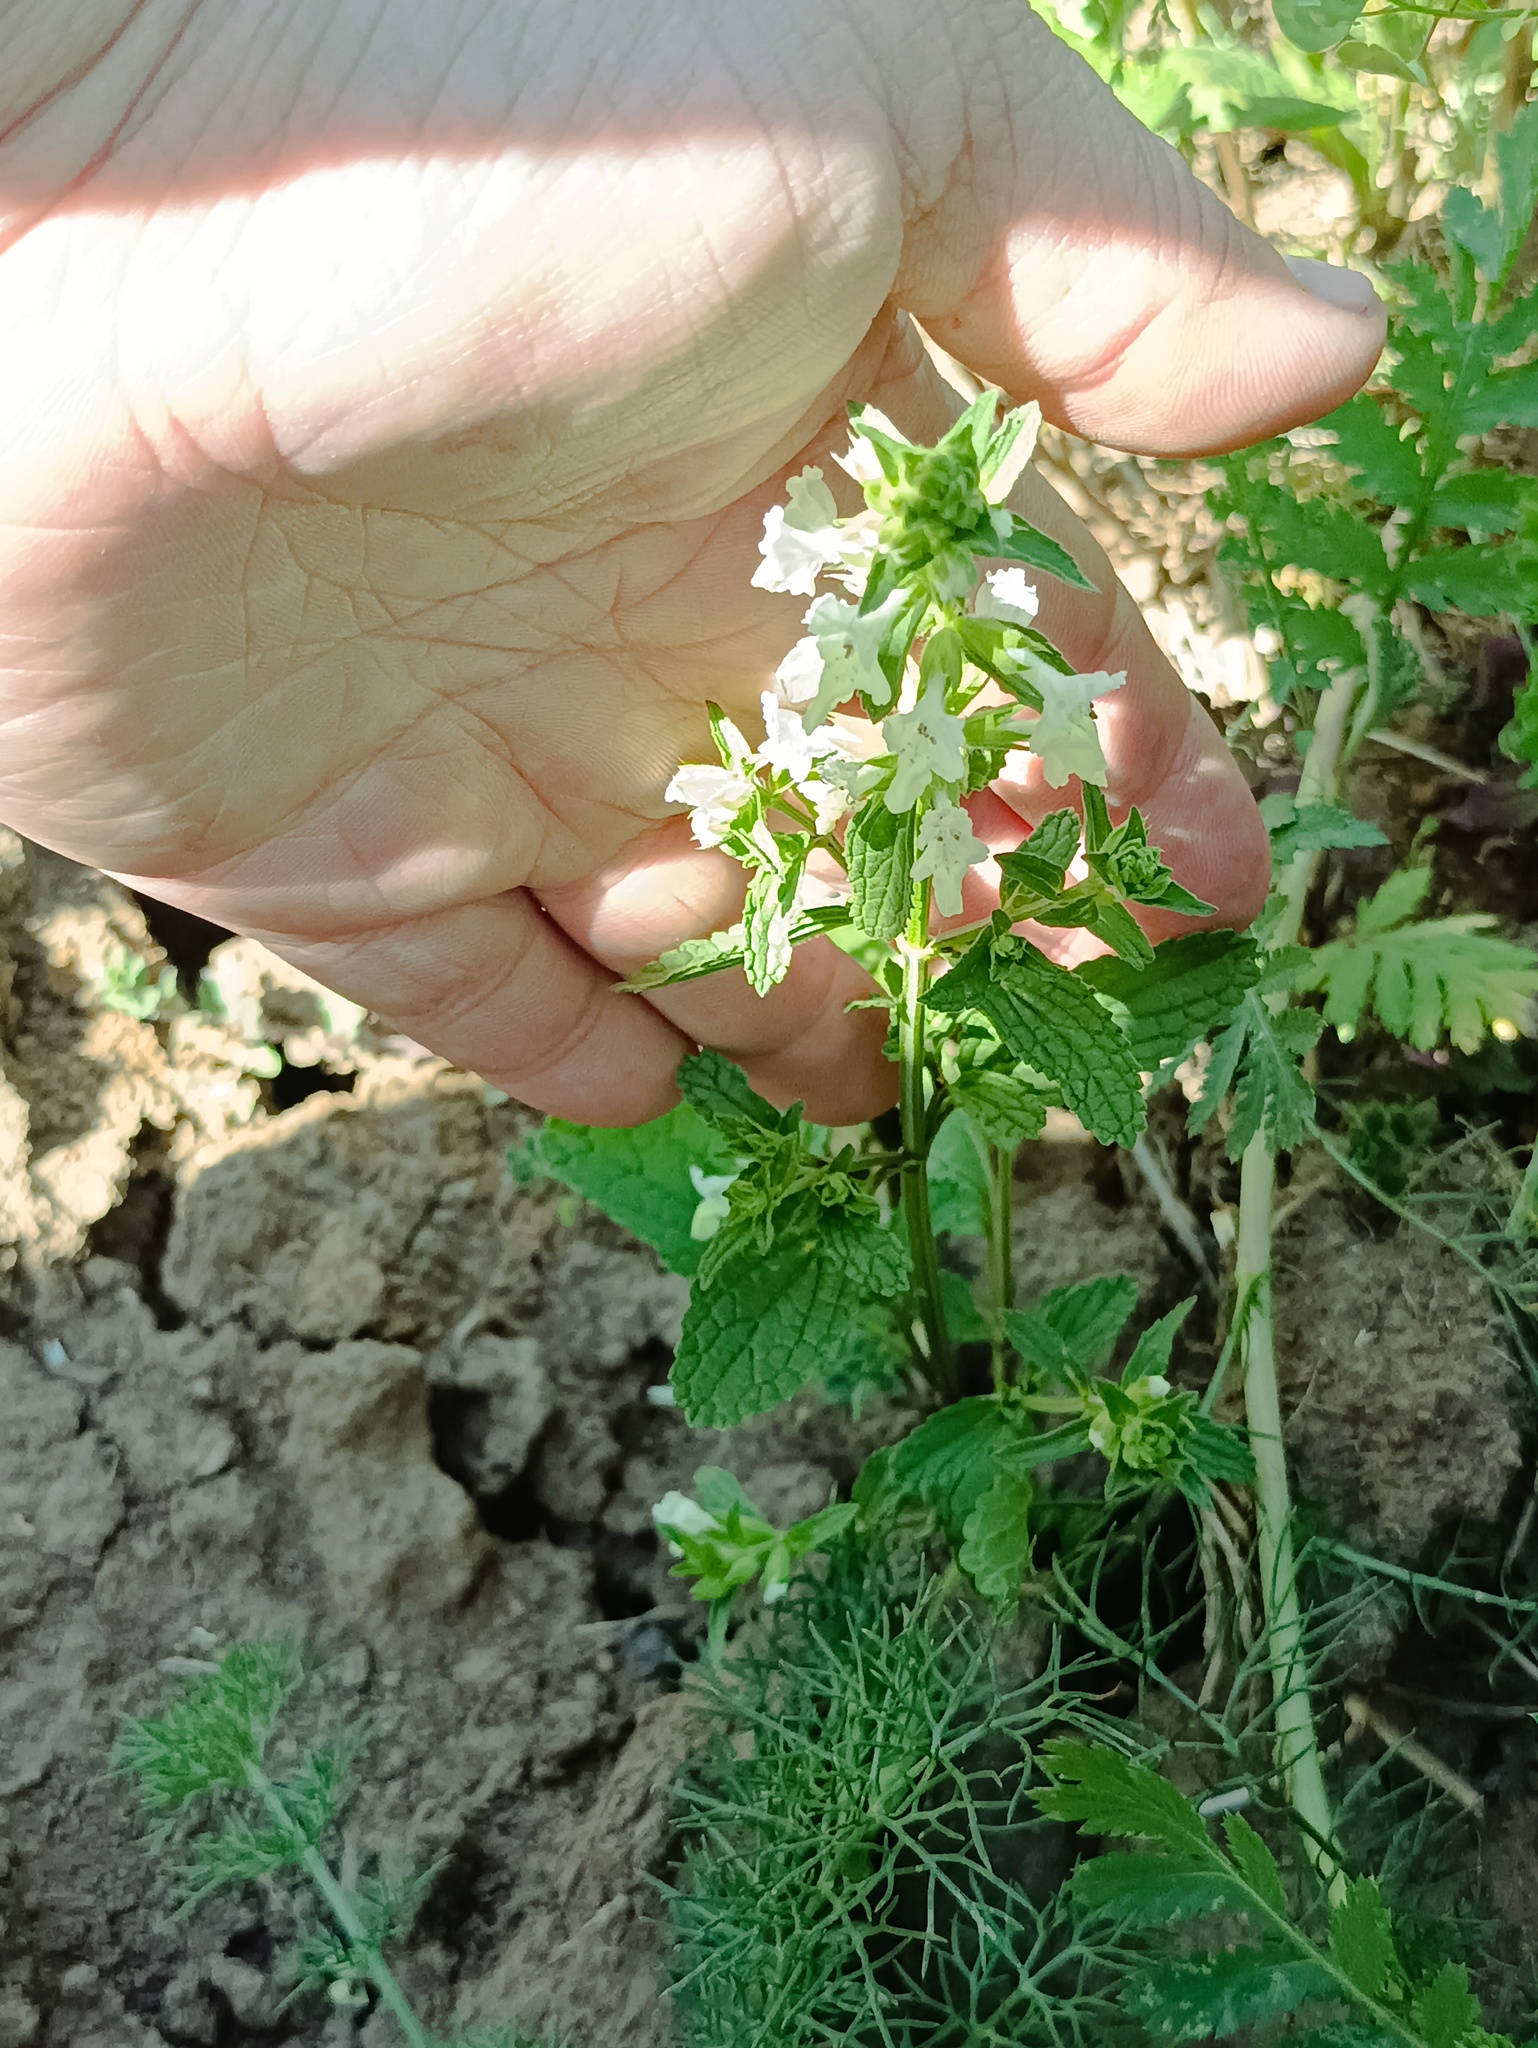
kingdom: Plantae
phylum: Tracheophyta
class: Magnoliopsida
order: Lamiales
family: Lamiaceae
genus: Stachys
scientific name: Stachys annua
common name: Annual yellow-woundwort
